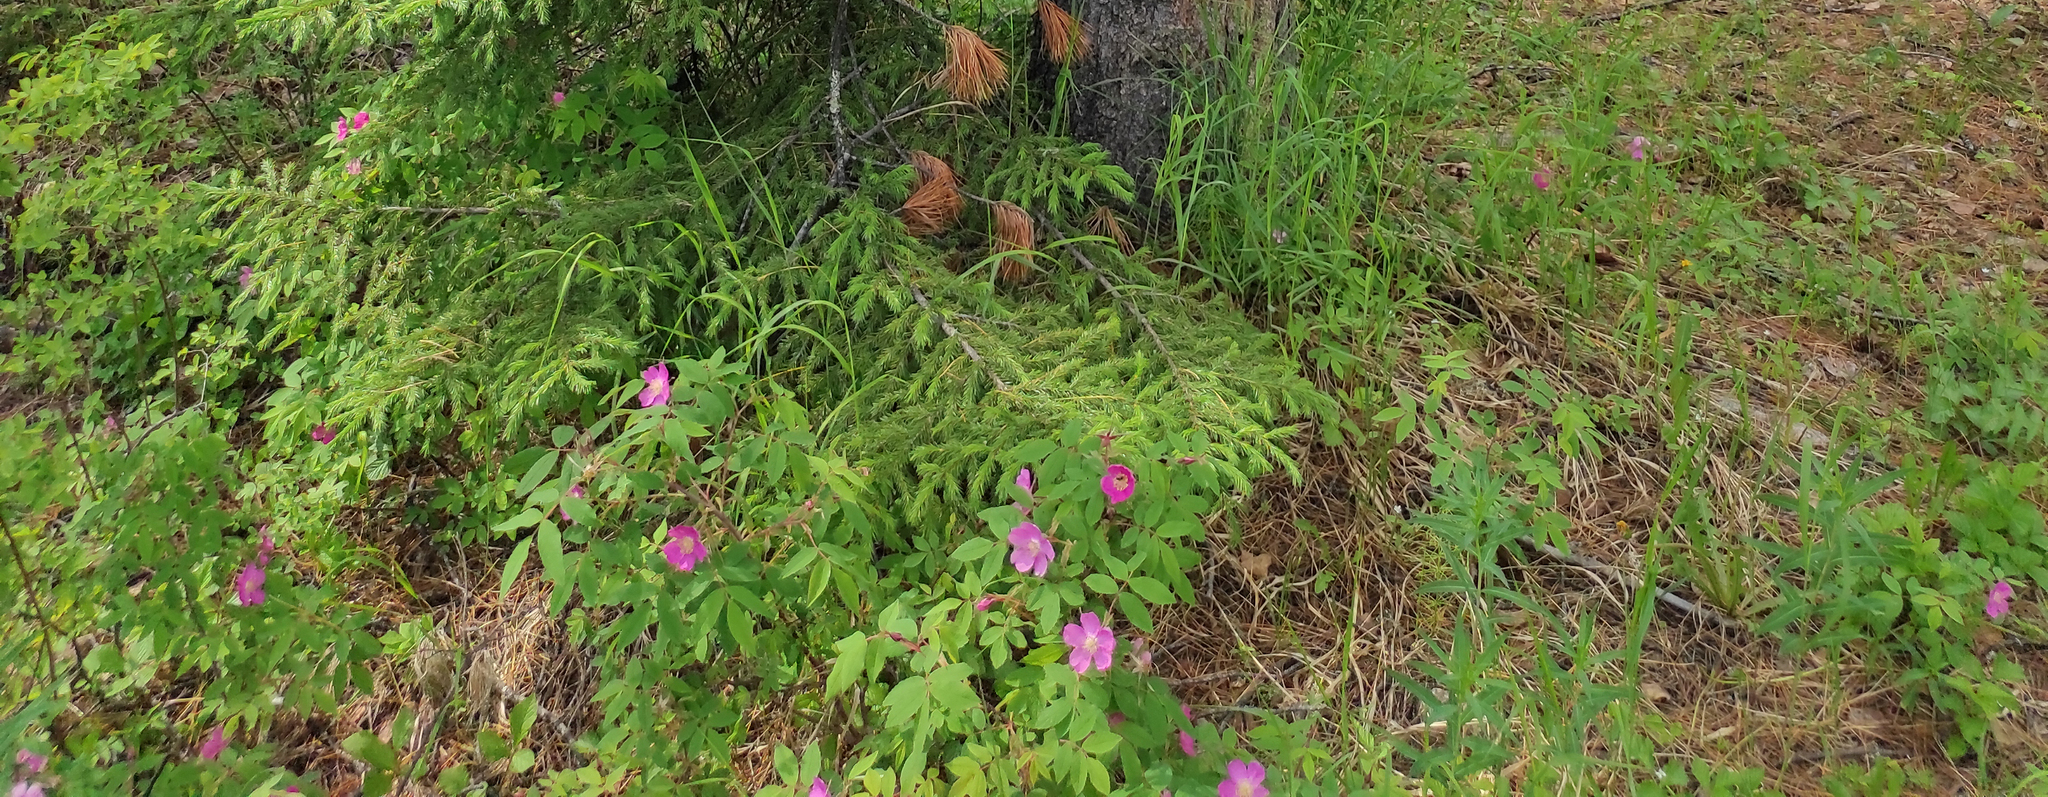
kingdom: Plantae
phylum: Tracheophyta
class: Pinopsida
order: Pinales
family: Pinaceae
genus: Pinus
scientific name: Pinus sibirica
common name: Siberian pine
